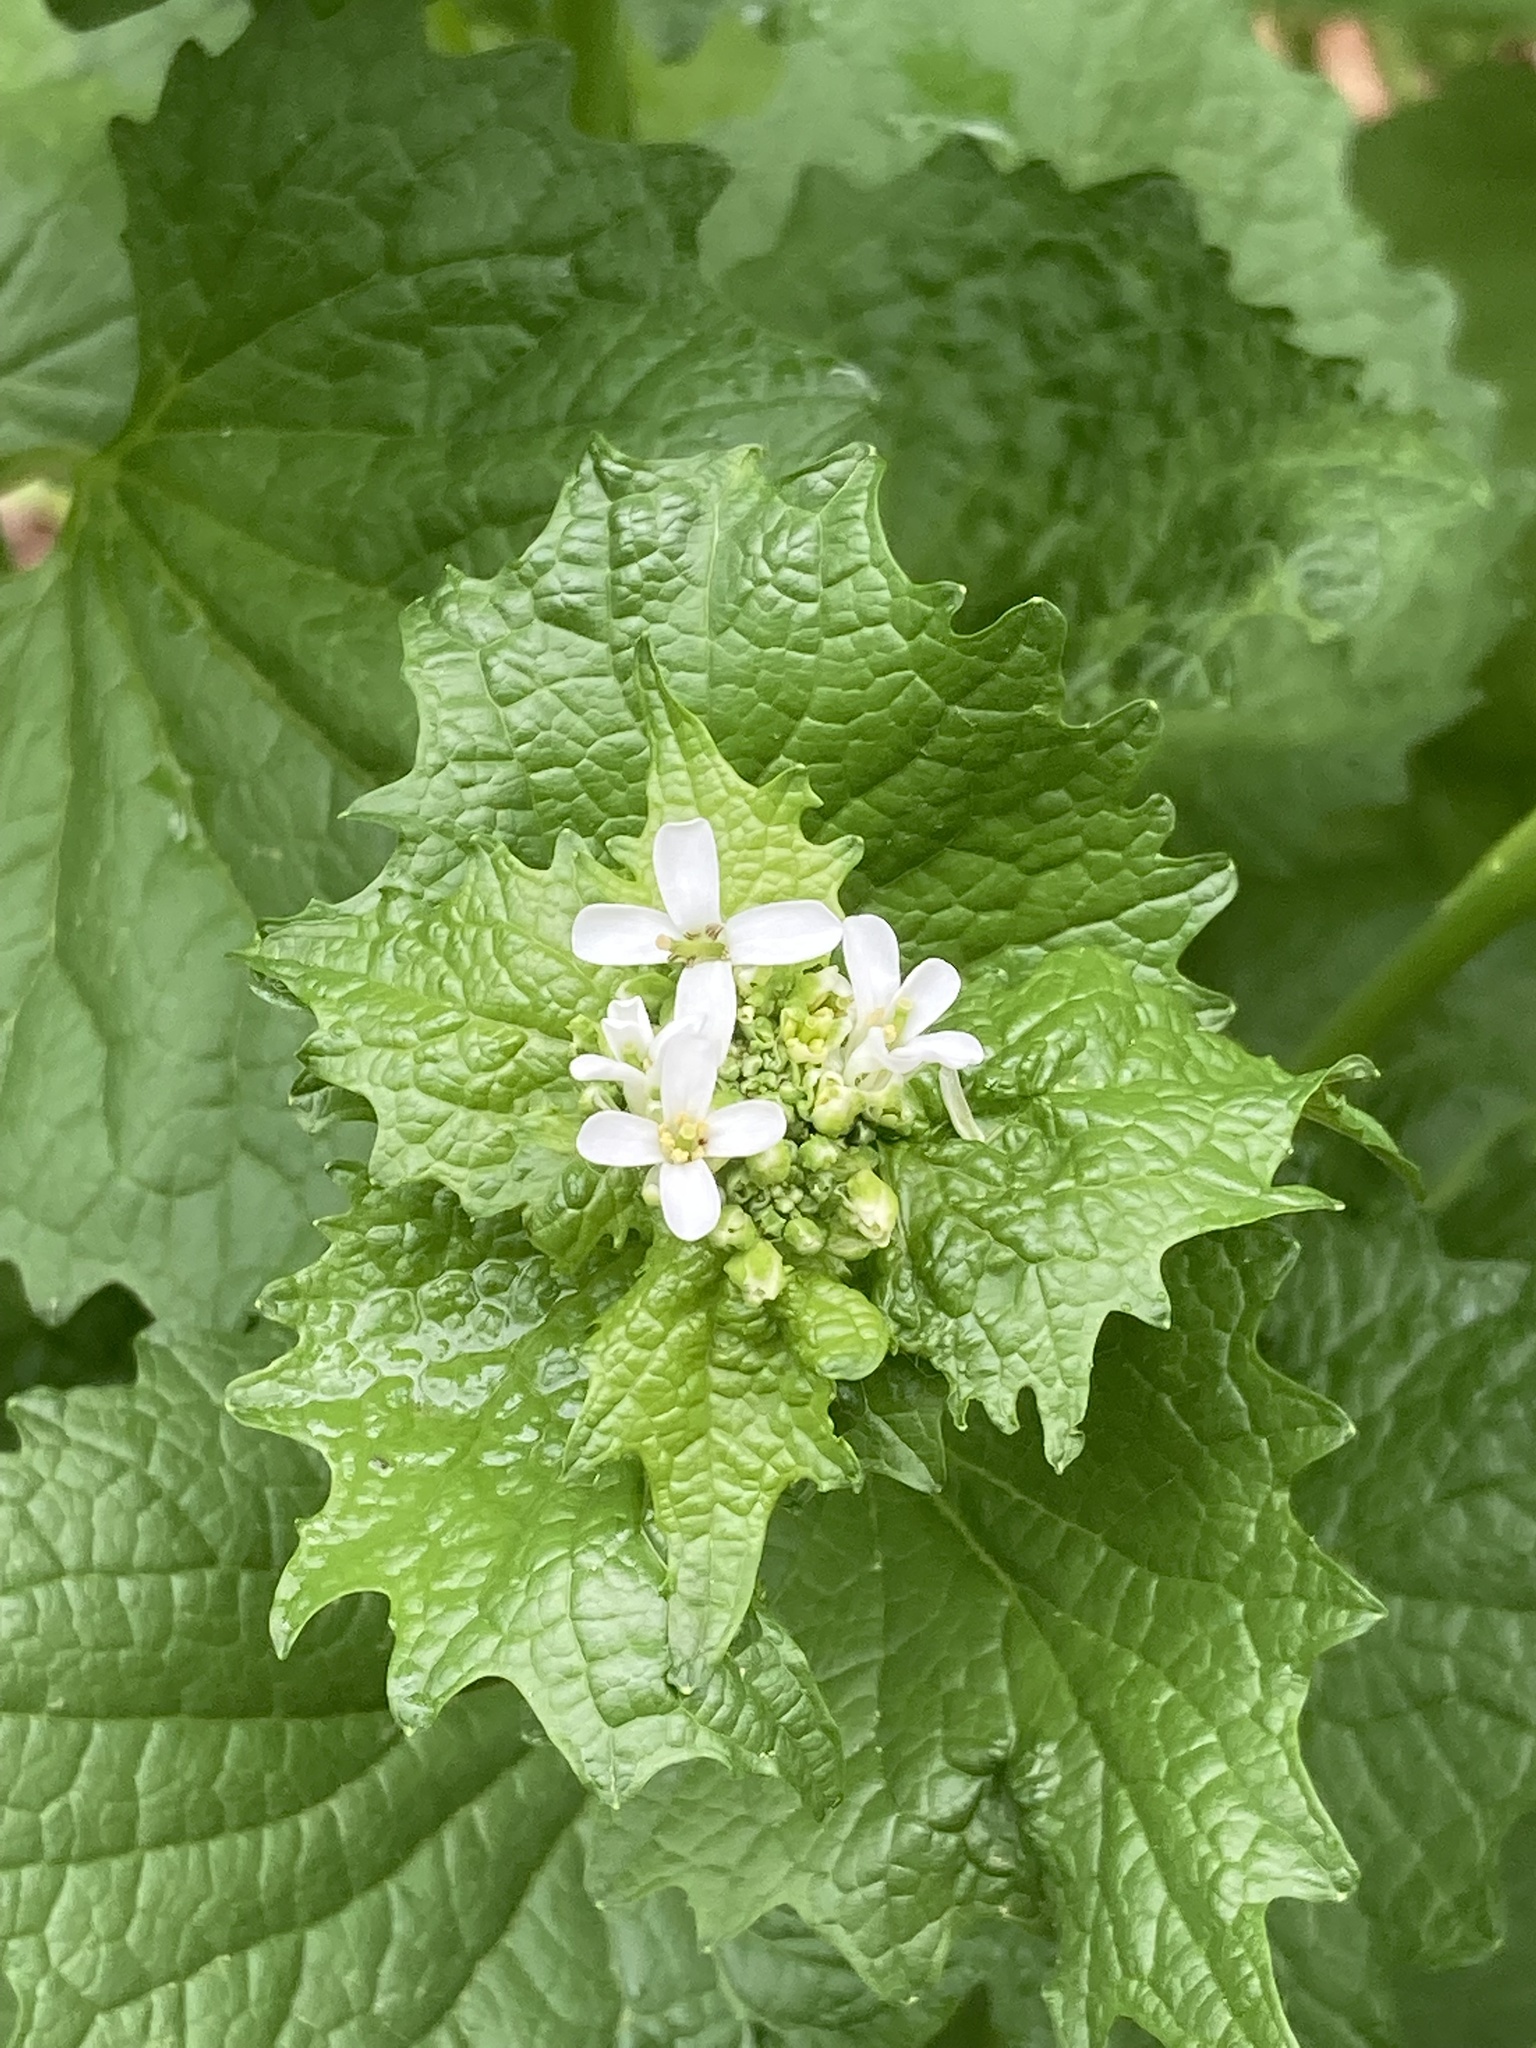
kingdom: Plantae
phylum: Tracheophyta
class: Magnoliopsida
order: Brassicales
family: Brassicaceae
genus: Alliaria
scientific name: Alliaria petiolata
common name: Garlic mustard
